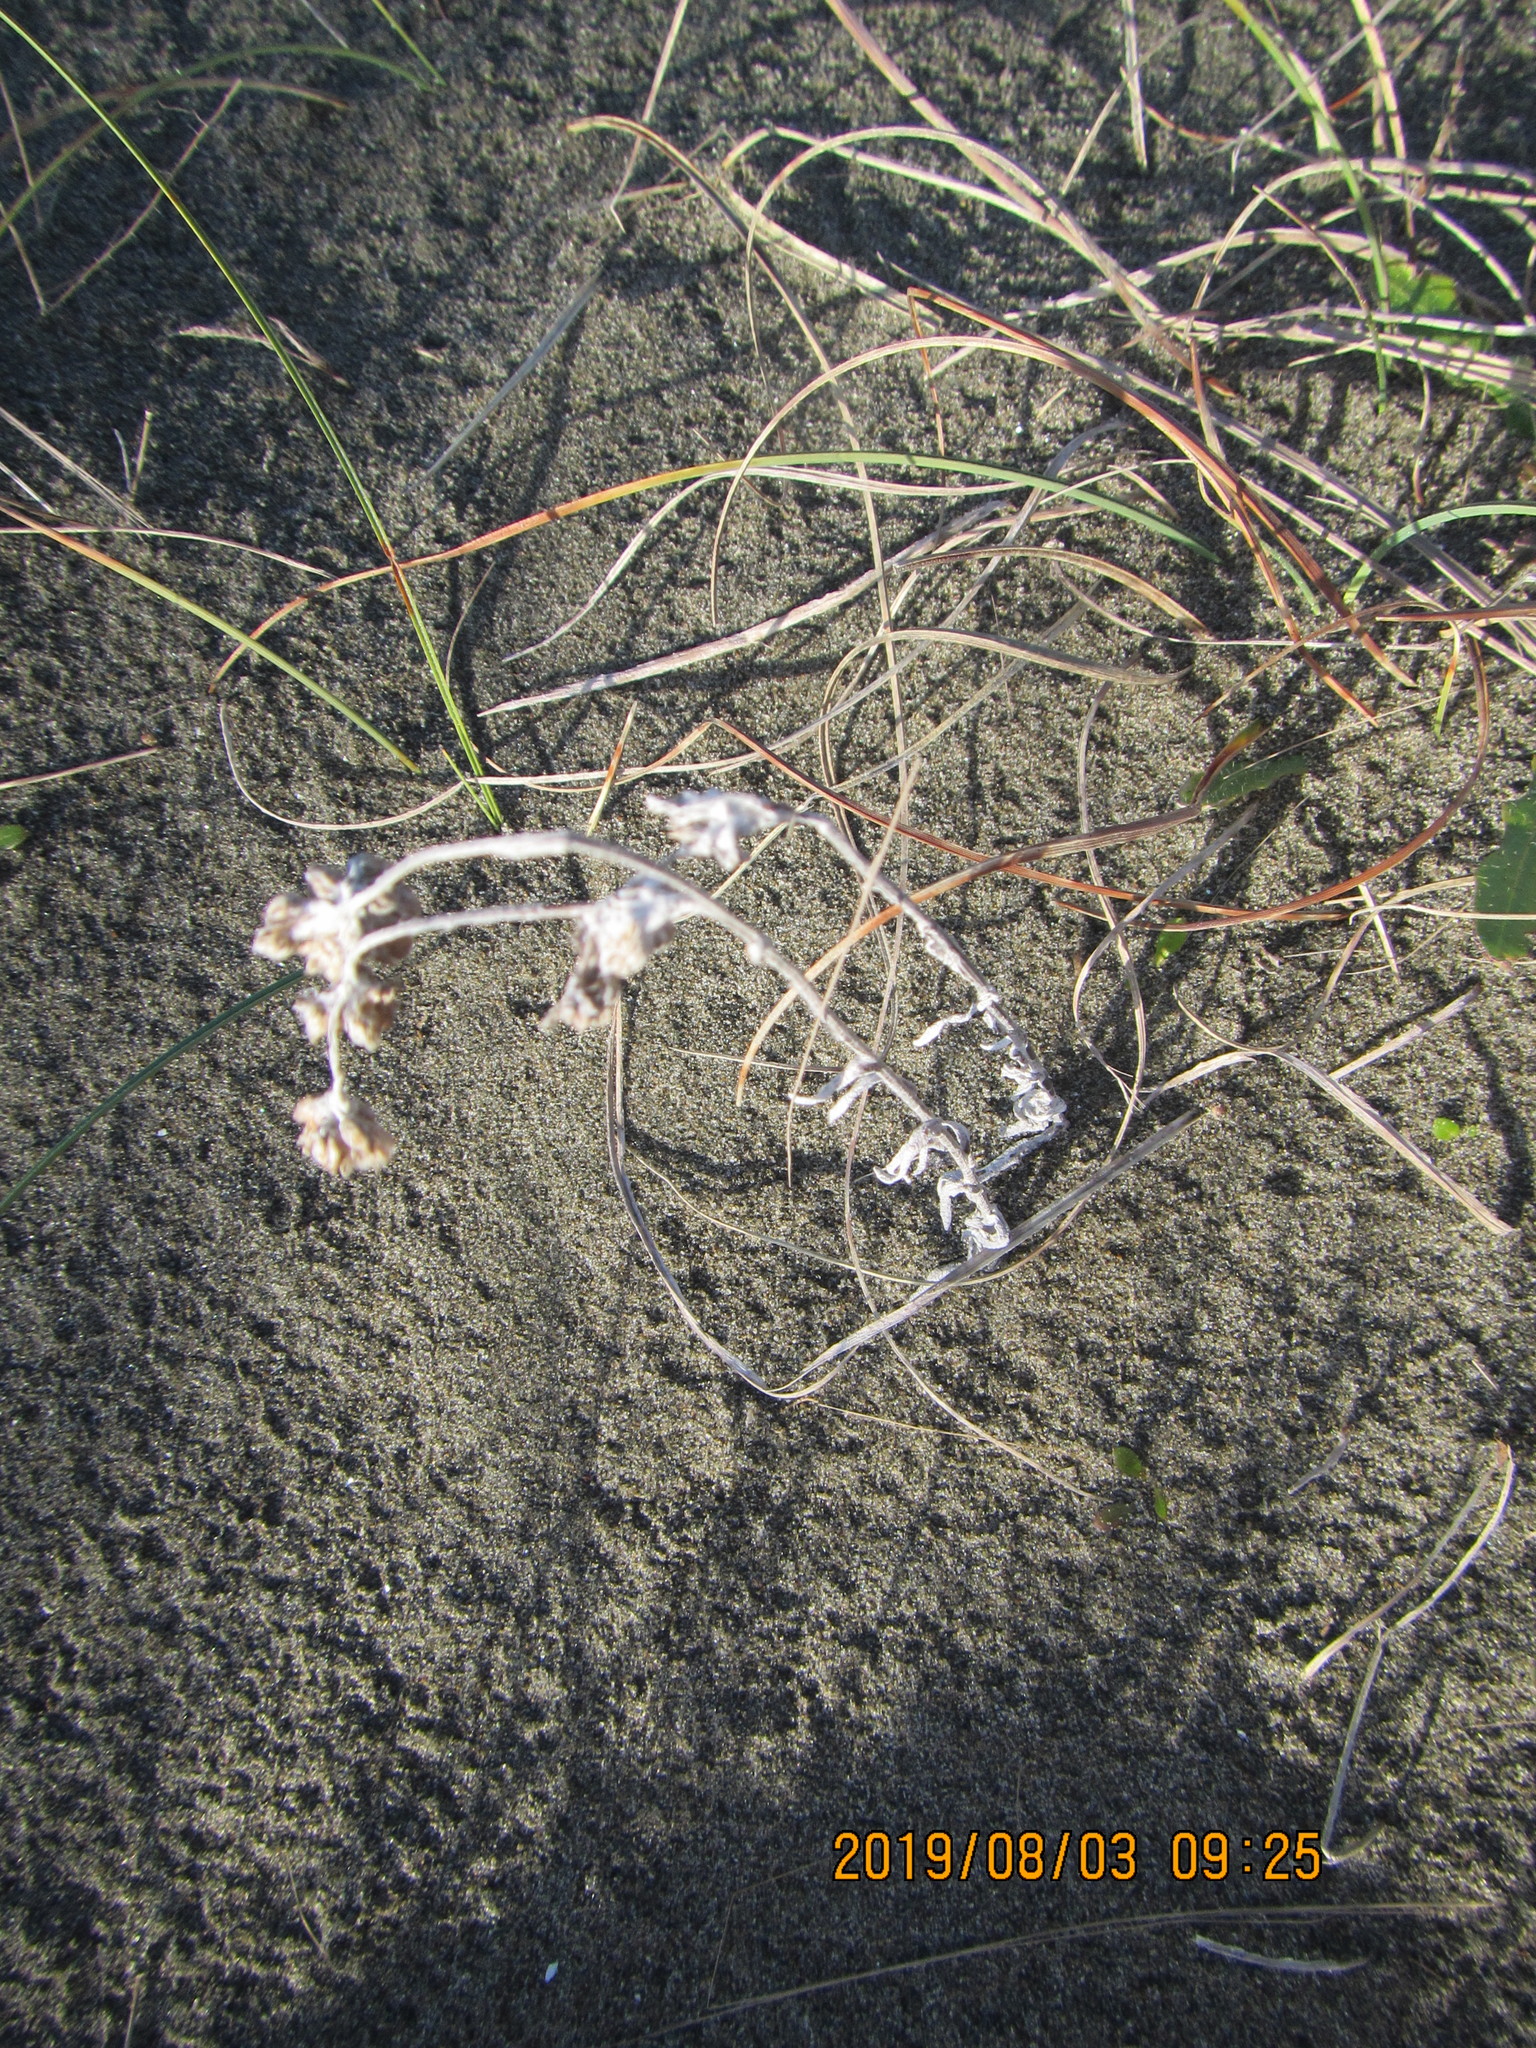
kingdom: Plantae
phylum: Tracheophyta
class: Magnoliopsida
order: Asterales
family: Asteraceae
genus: Helichrysum
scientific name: Helichrysum luteoalbum
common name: Daisy
